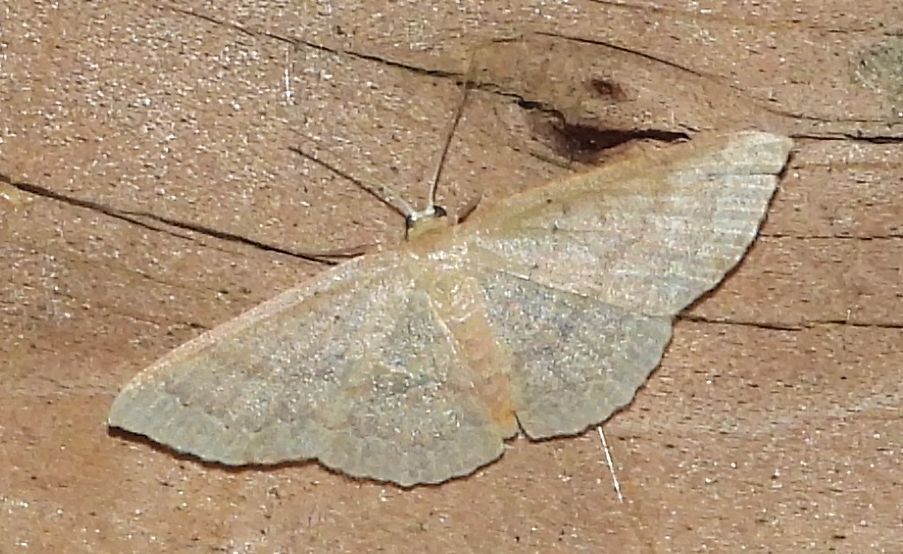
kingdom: Animalia
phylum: Arthropoda
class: Insecta
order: Lepidoptera
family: Geometridae
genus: Pleuroprucha
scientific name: Pleuroprucha insulsaria
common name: Common tan wave
